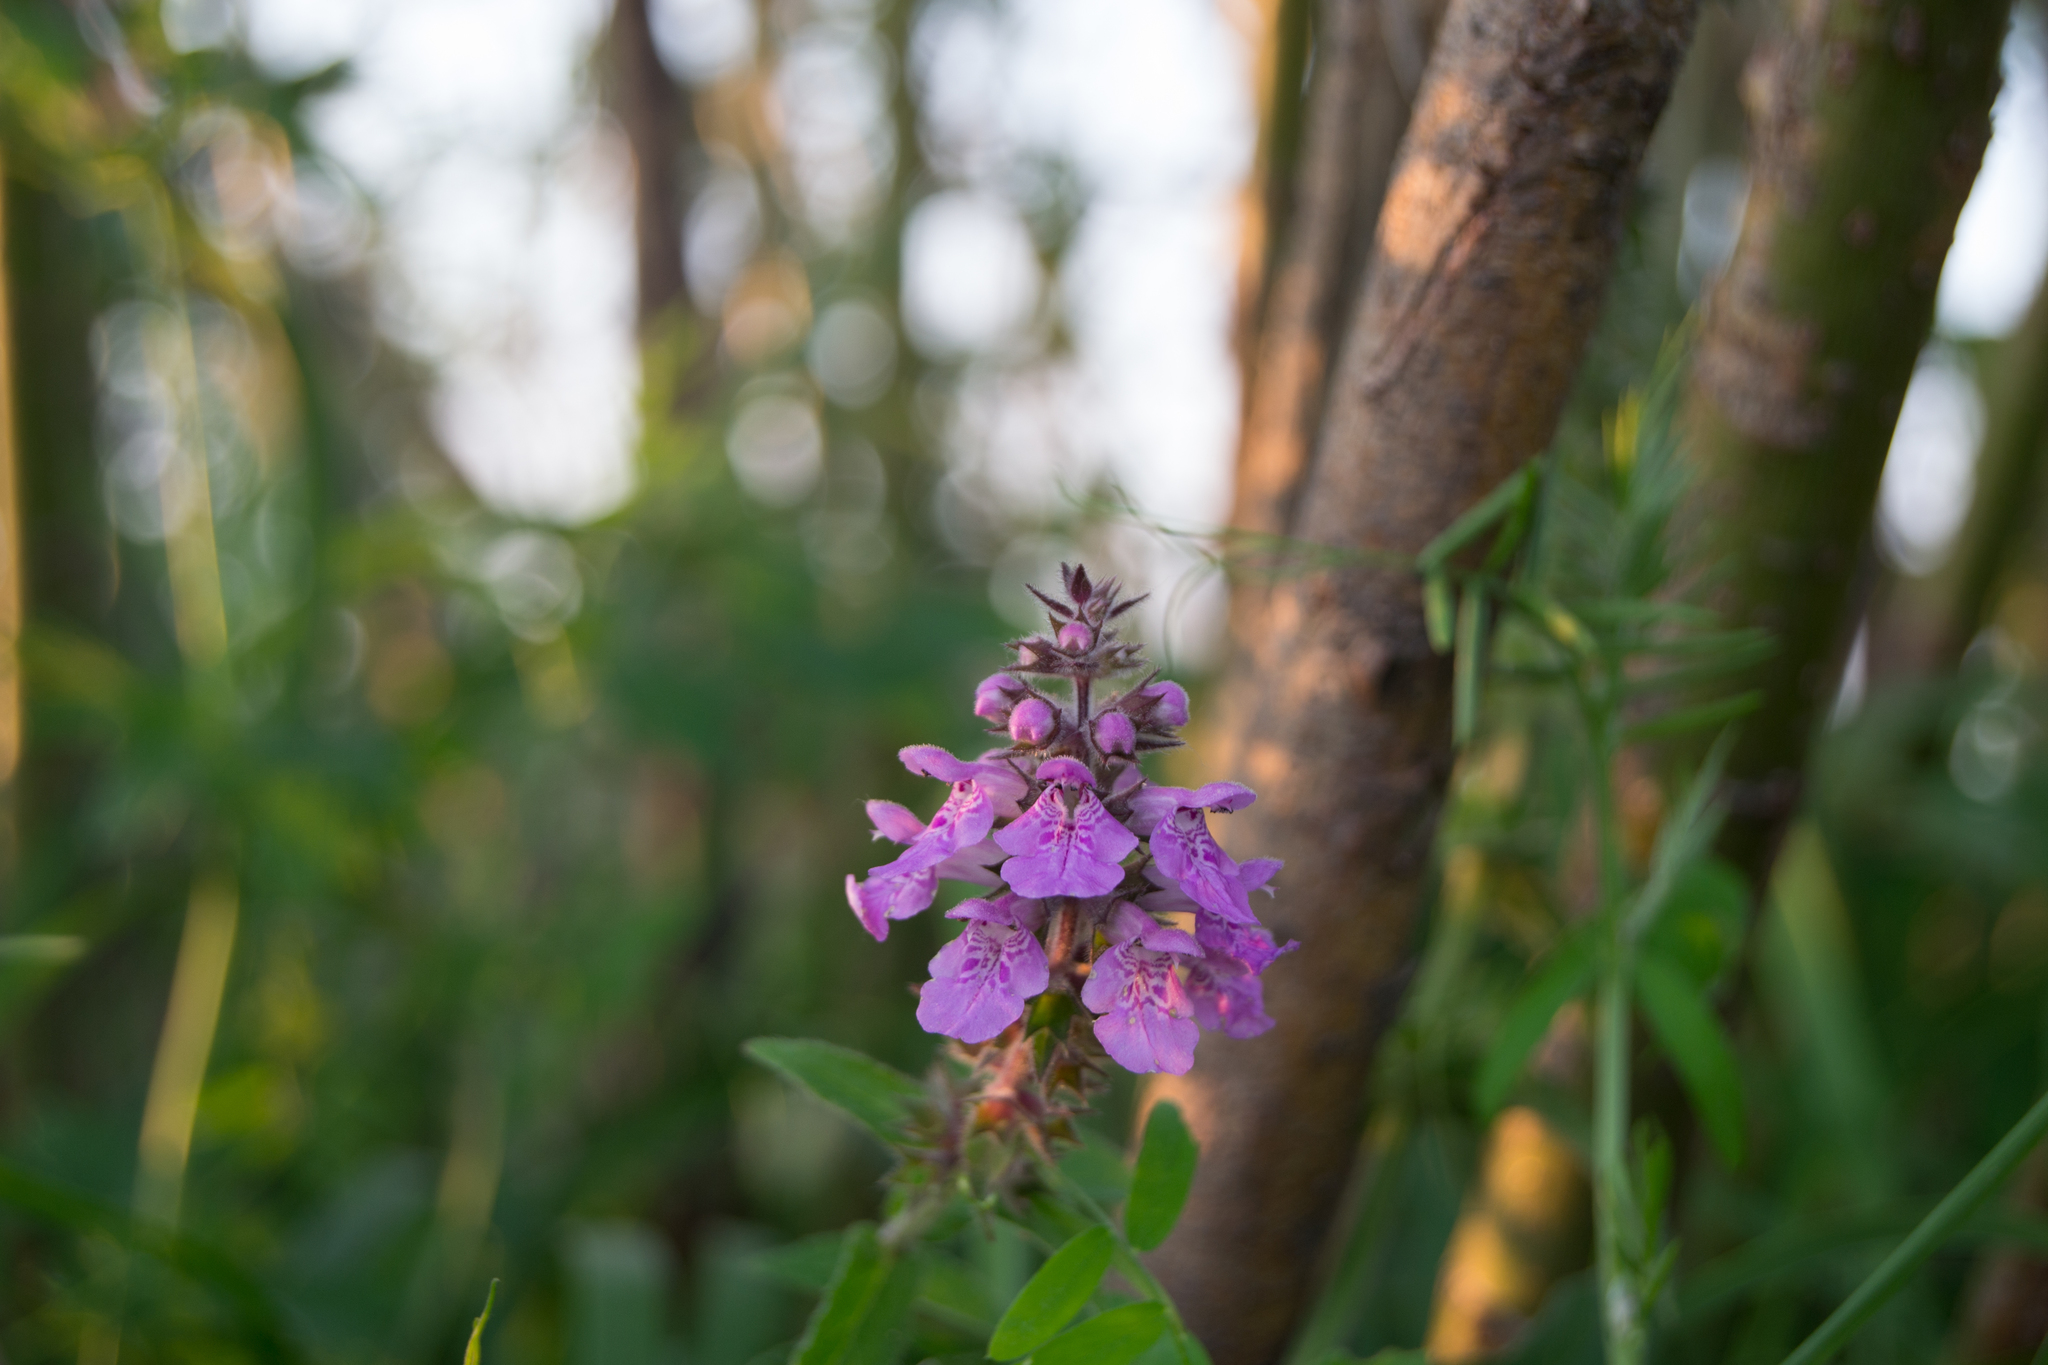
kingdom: Plantae
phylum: Tracheophyta
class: Magnoliopsida
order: Lamiales
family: Lamiaceae
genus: Stachys
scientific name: Stachys palustris
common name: Marsh woundwort
